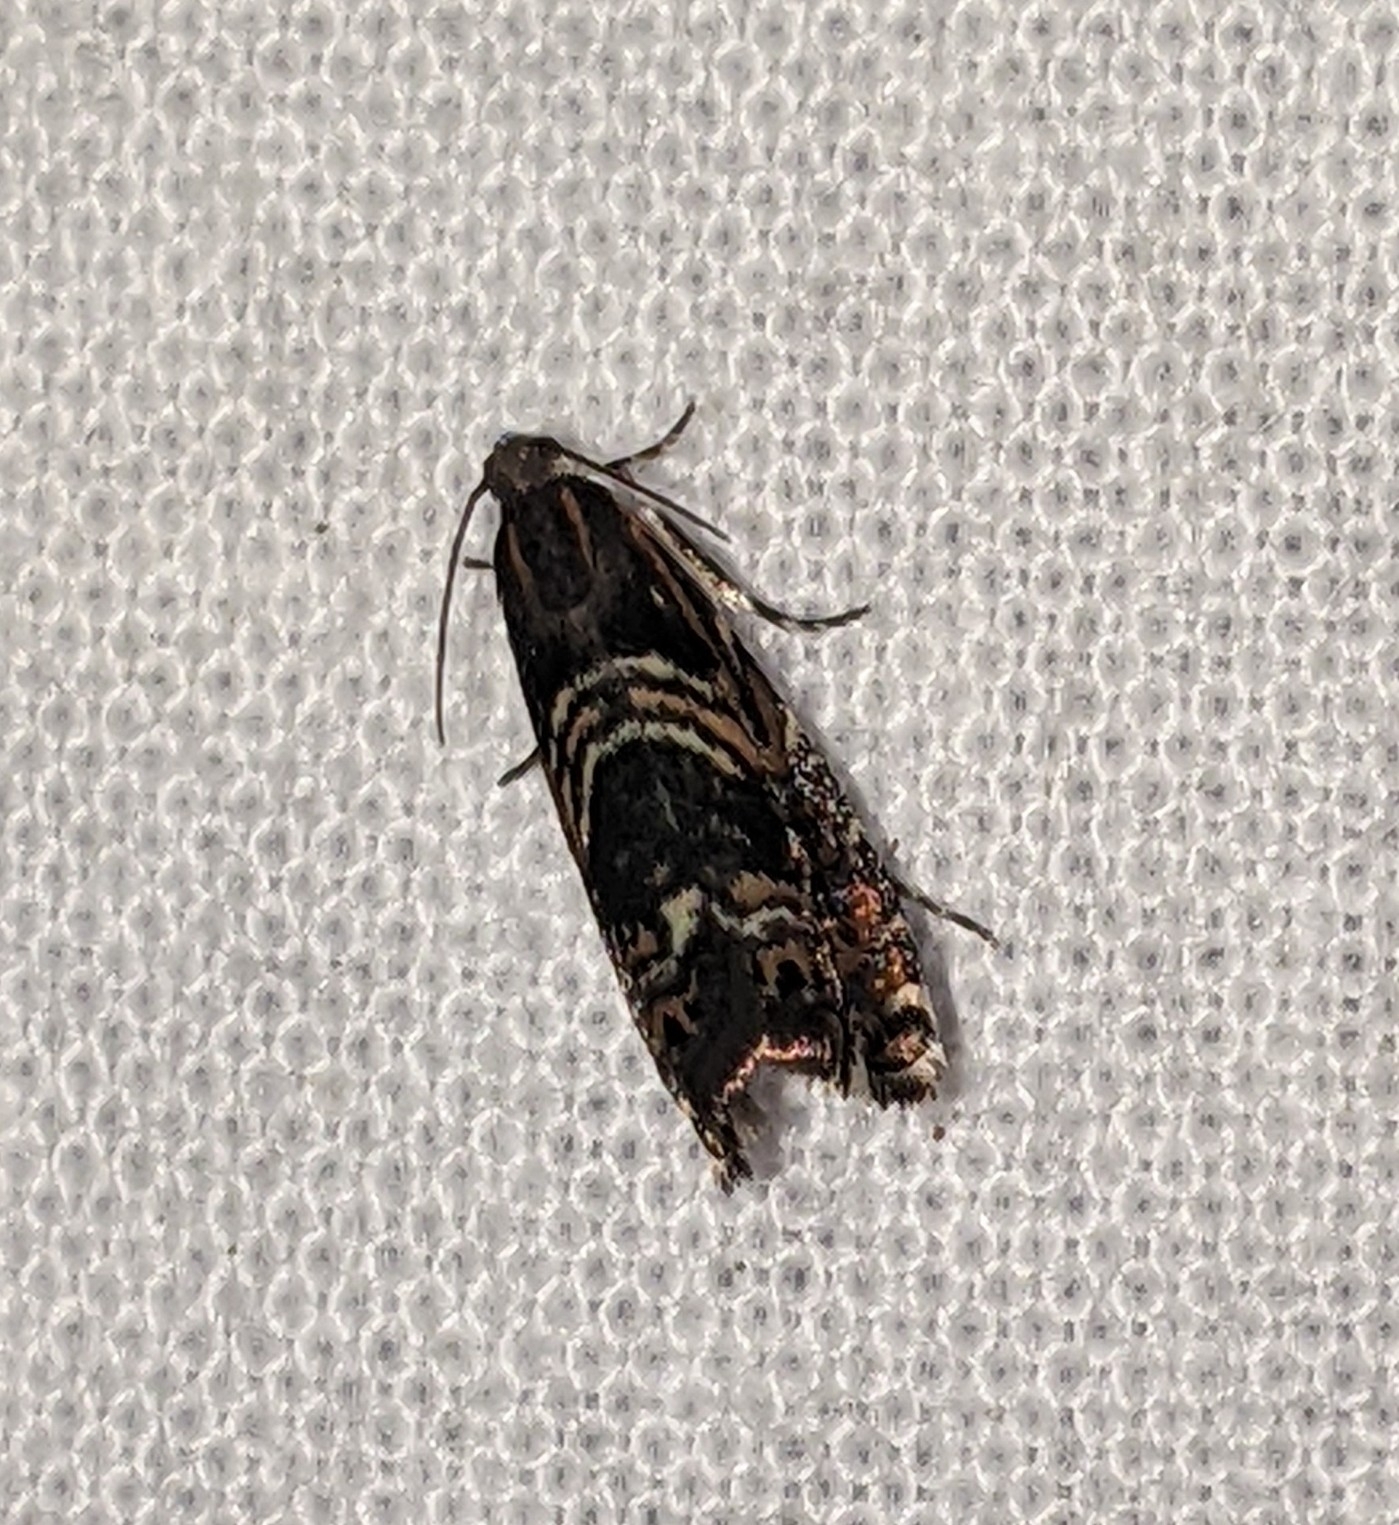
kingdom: Animalia
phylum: Arthropoda
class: Insecta
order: Lepidoptera
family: Tortricidae
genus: Thaumatographa
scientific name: Thaumatographa youngiella
